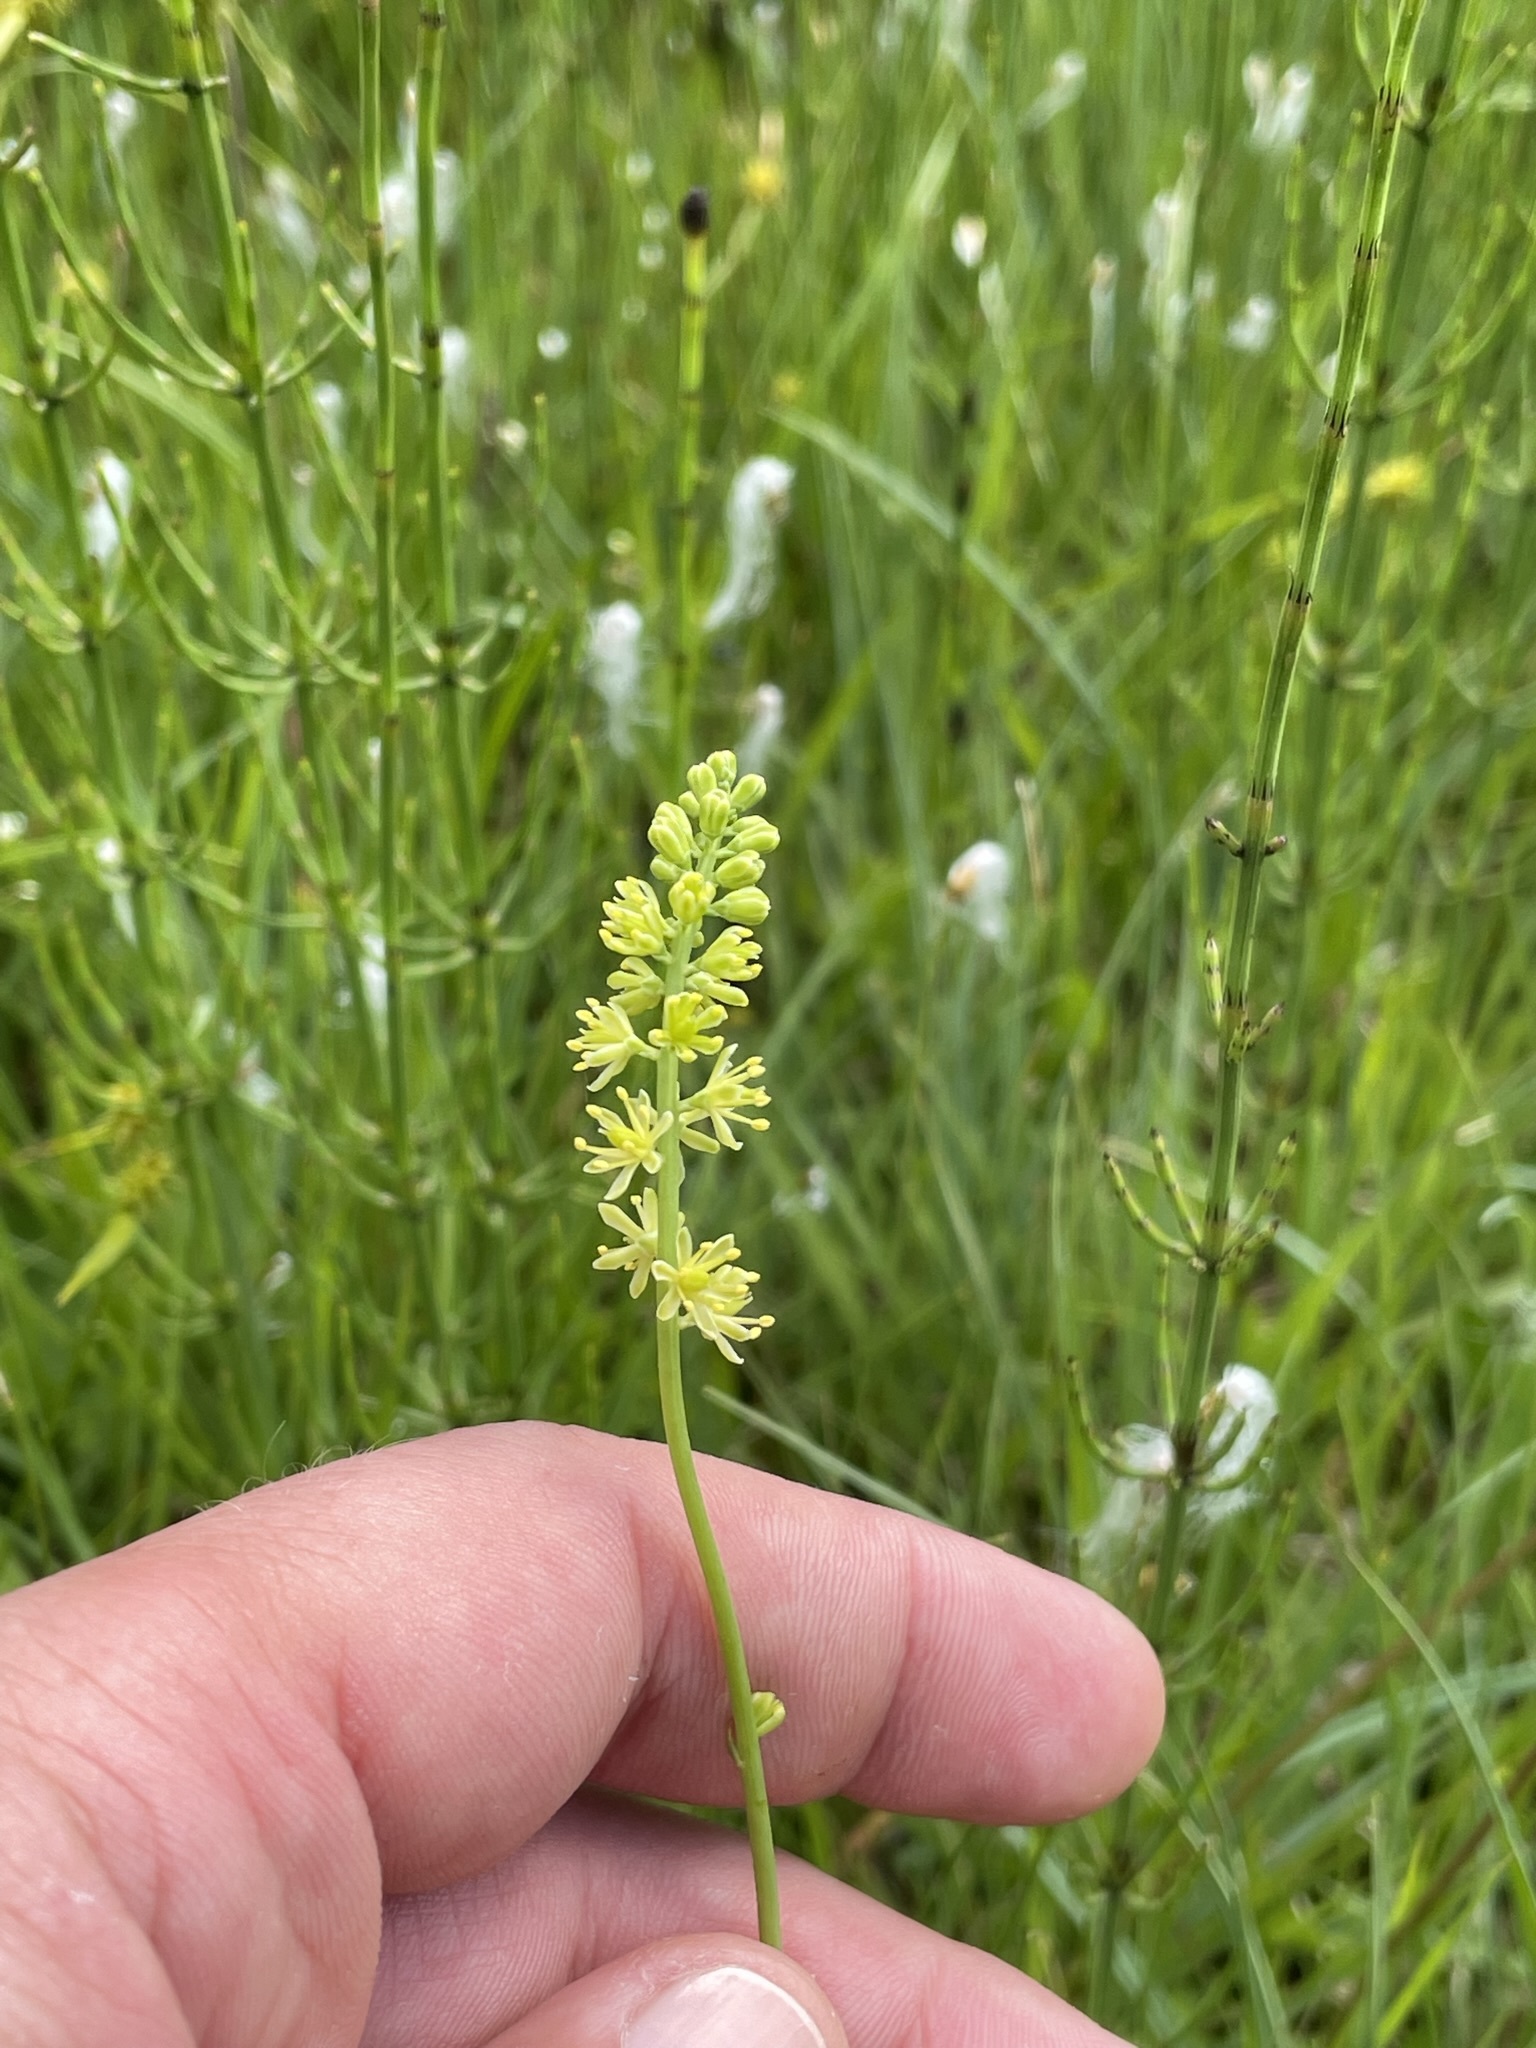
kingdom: Plantae
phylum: Tracheophyta
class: Liliopsida
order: Alismatales
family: Tofieldiaceae
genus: Tofieldia
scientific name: Tofieldia calyculata
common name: German-asphodel
